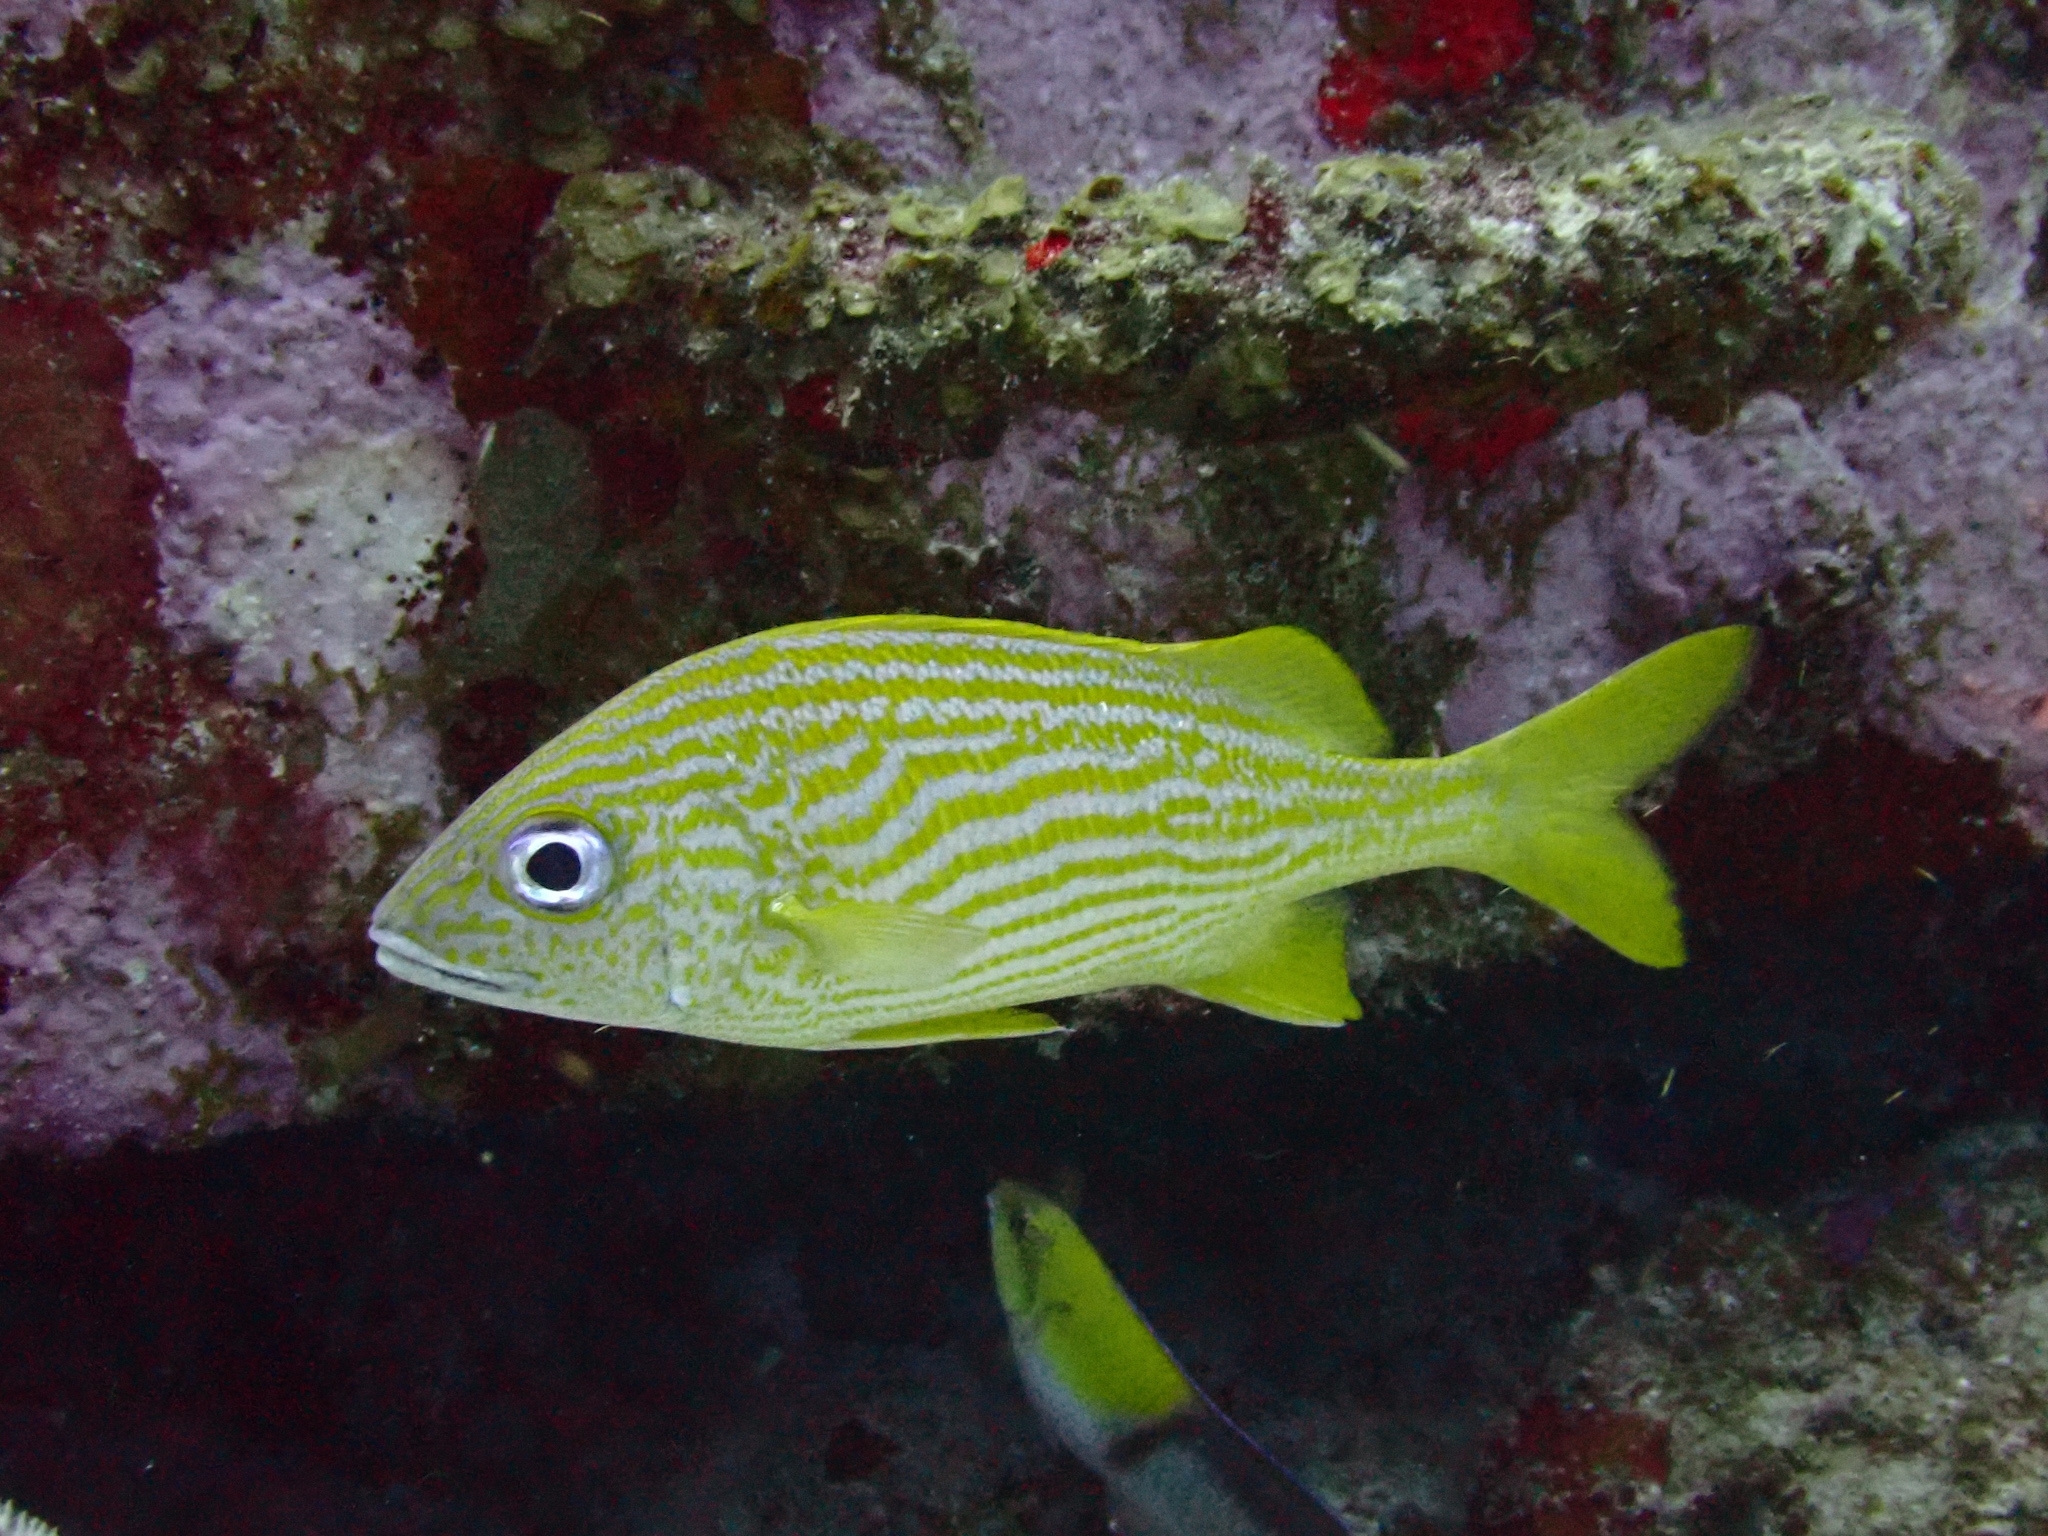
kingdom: Animalia
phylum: Chordata
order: Perciformes
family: Haemulidae
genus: Haemulon
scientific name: Haemulon flavolineatum
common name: French grunt
